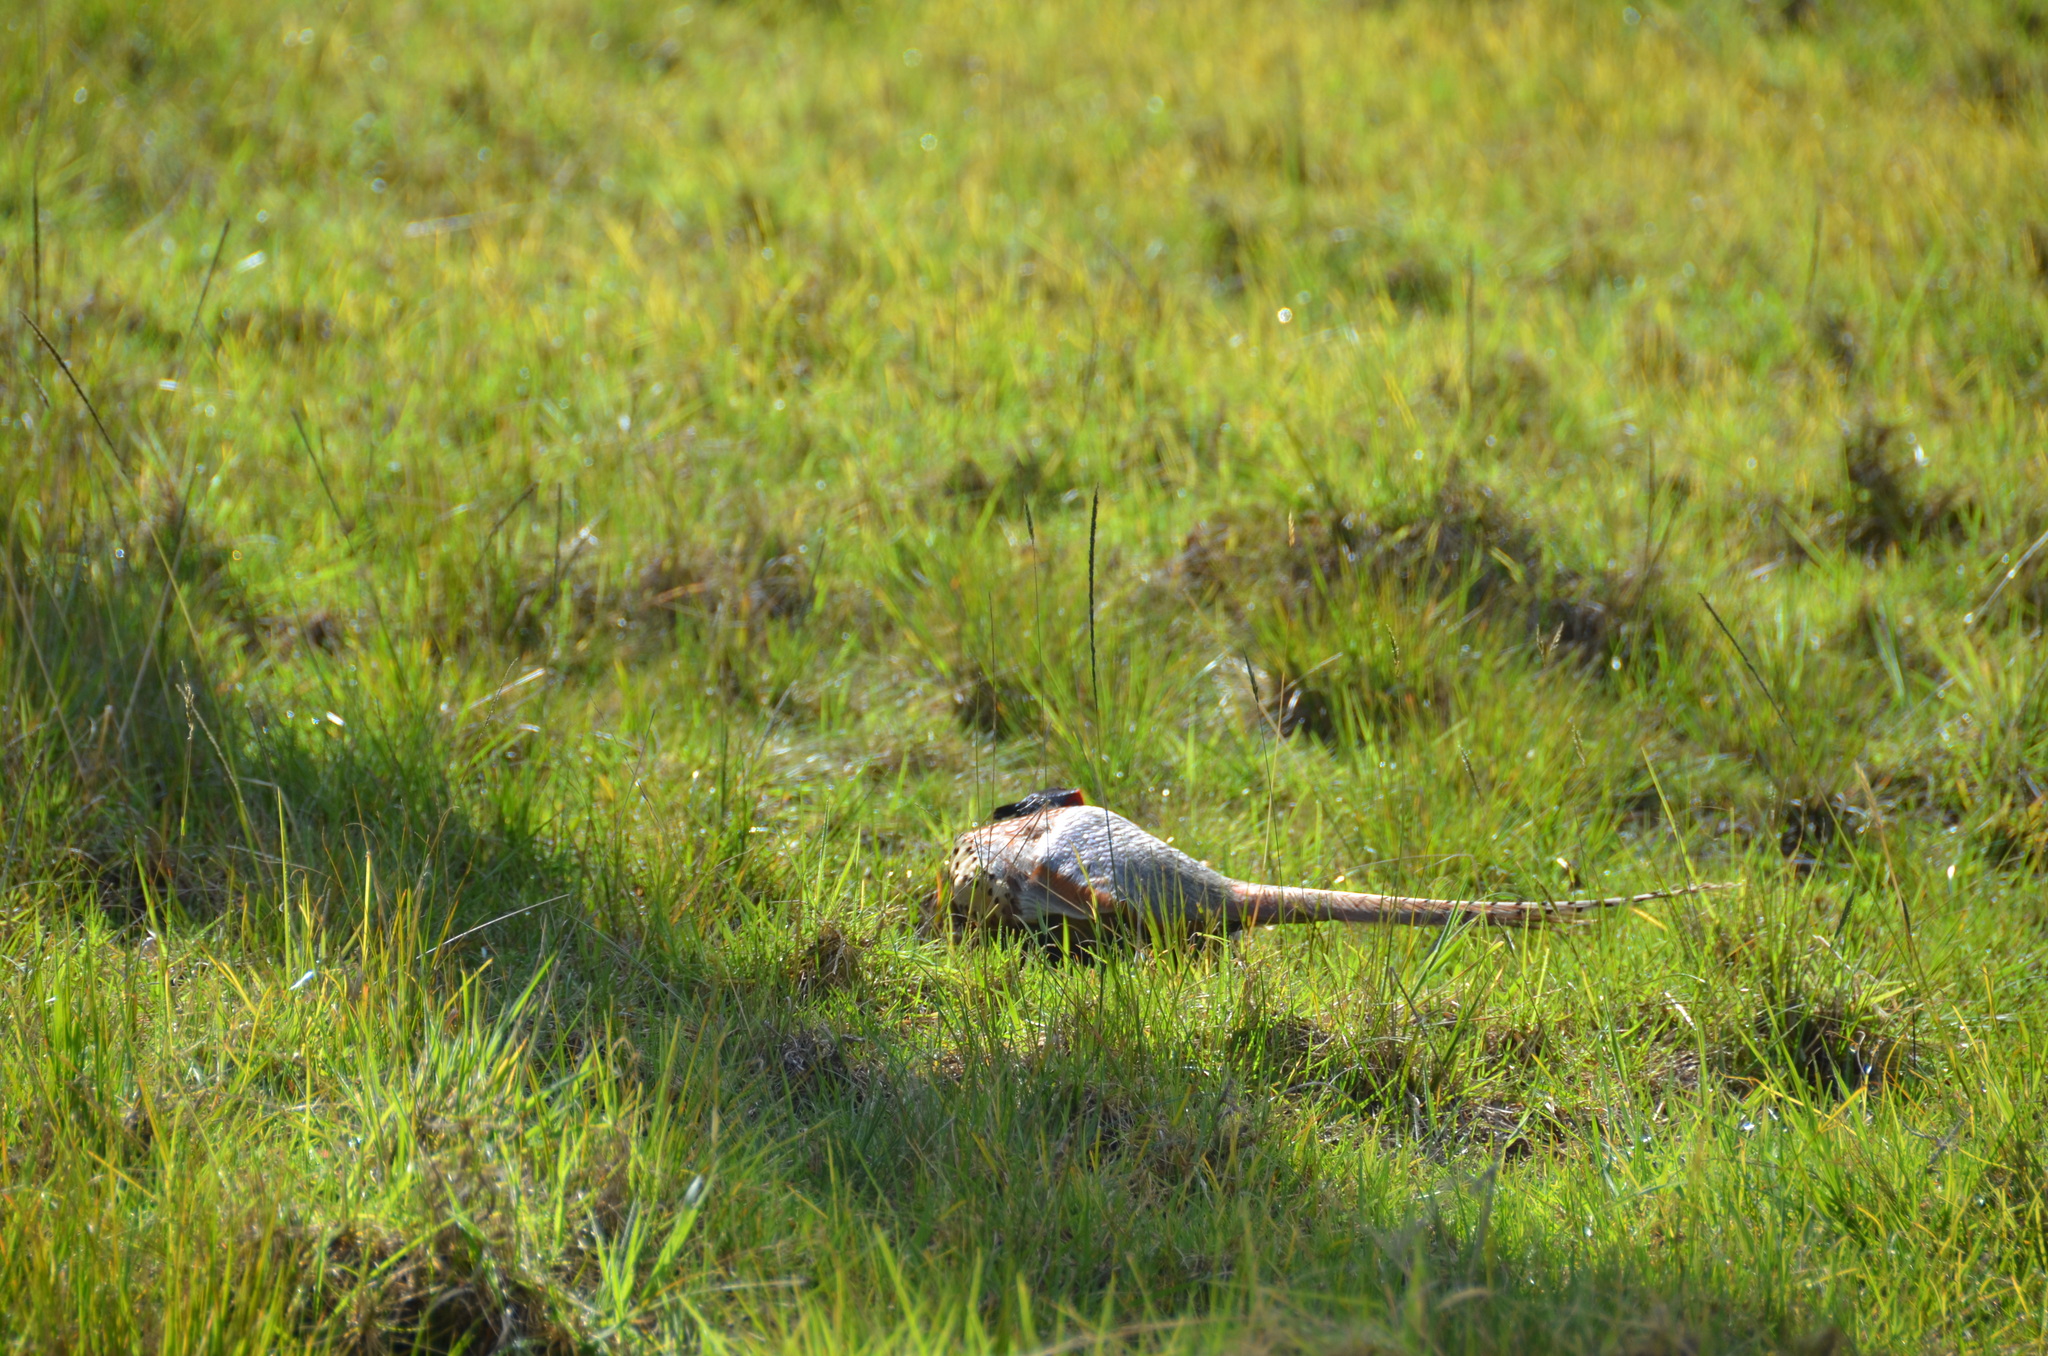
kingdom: Animalia
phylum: Chordata
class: Aves
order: Galliformes
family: Phasianidae
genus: Phasianus
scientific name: Phasianus colchicus
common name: Common pheasant
